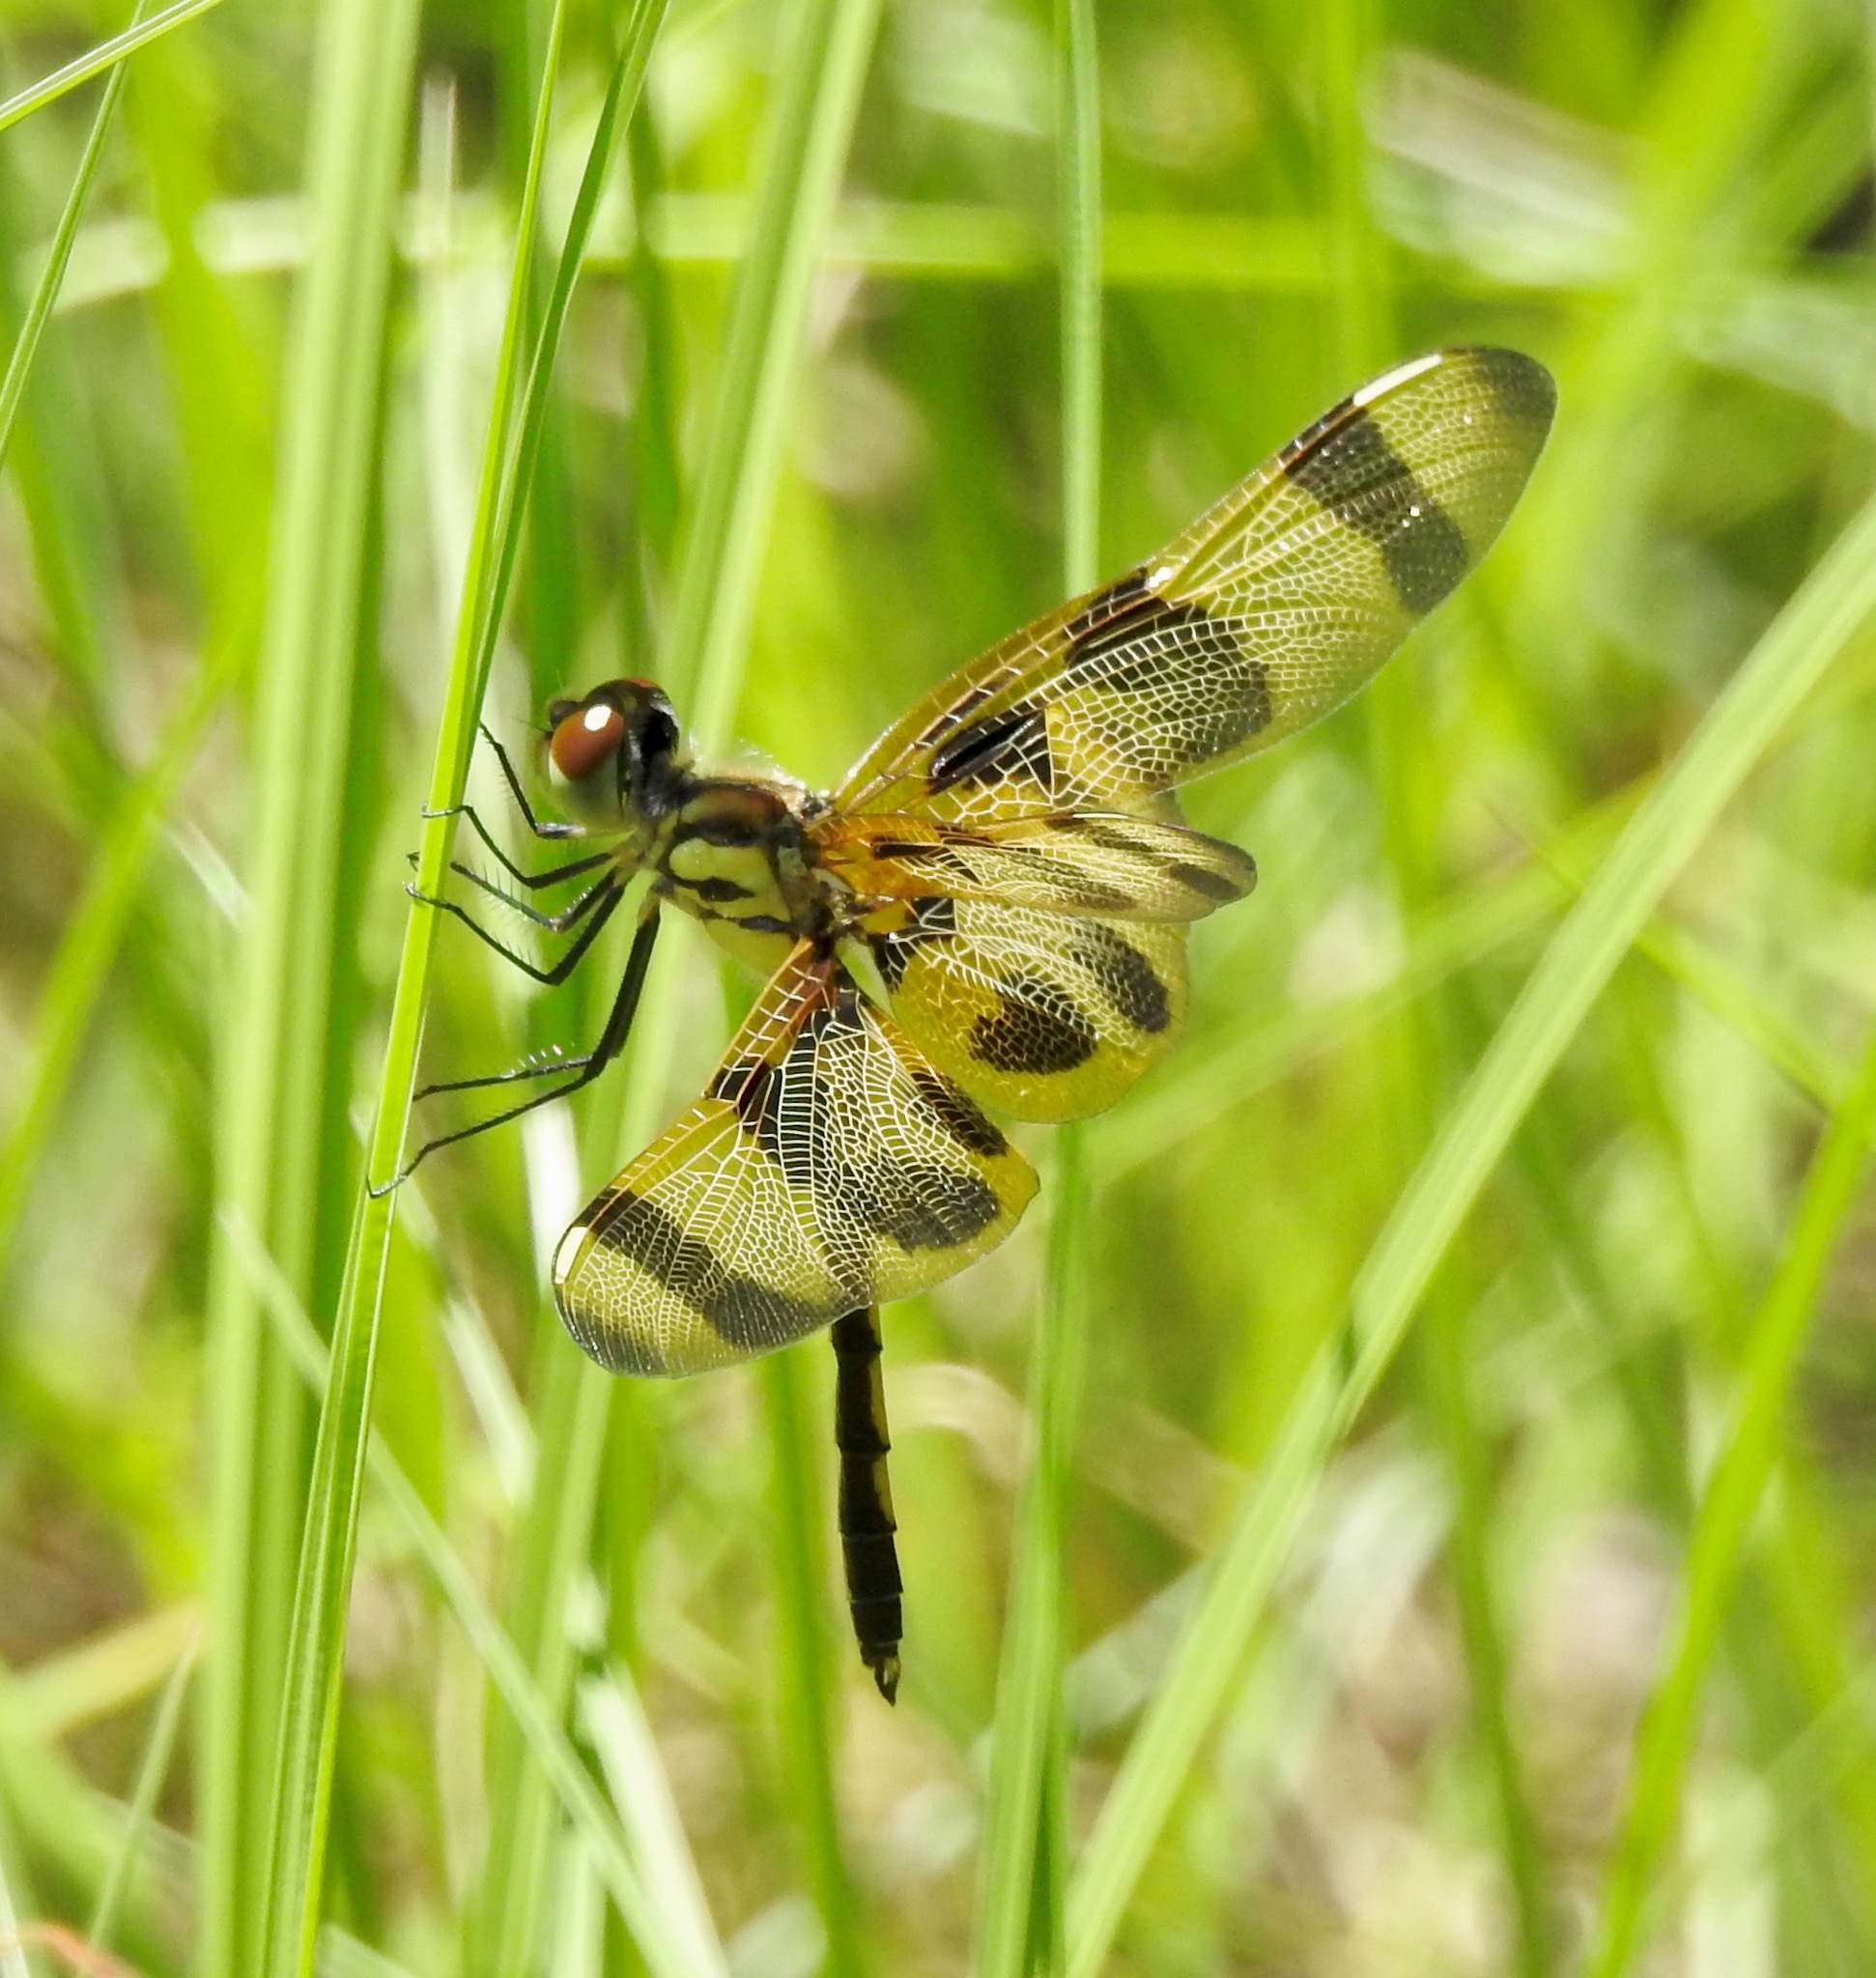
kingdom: Animalia
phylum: Arthropoda
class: Insecta
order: Odonata
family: Libellulidae
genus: Celithemis
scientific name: Celithemis eponina
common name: Halloween pennant
